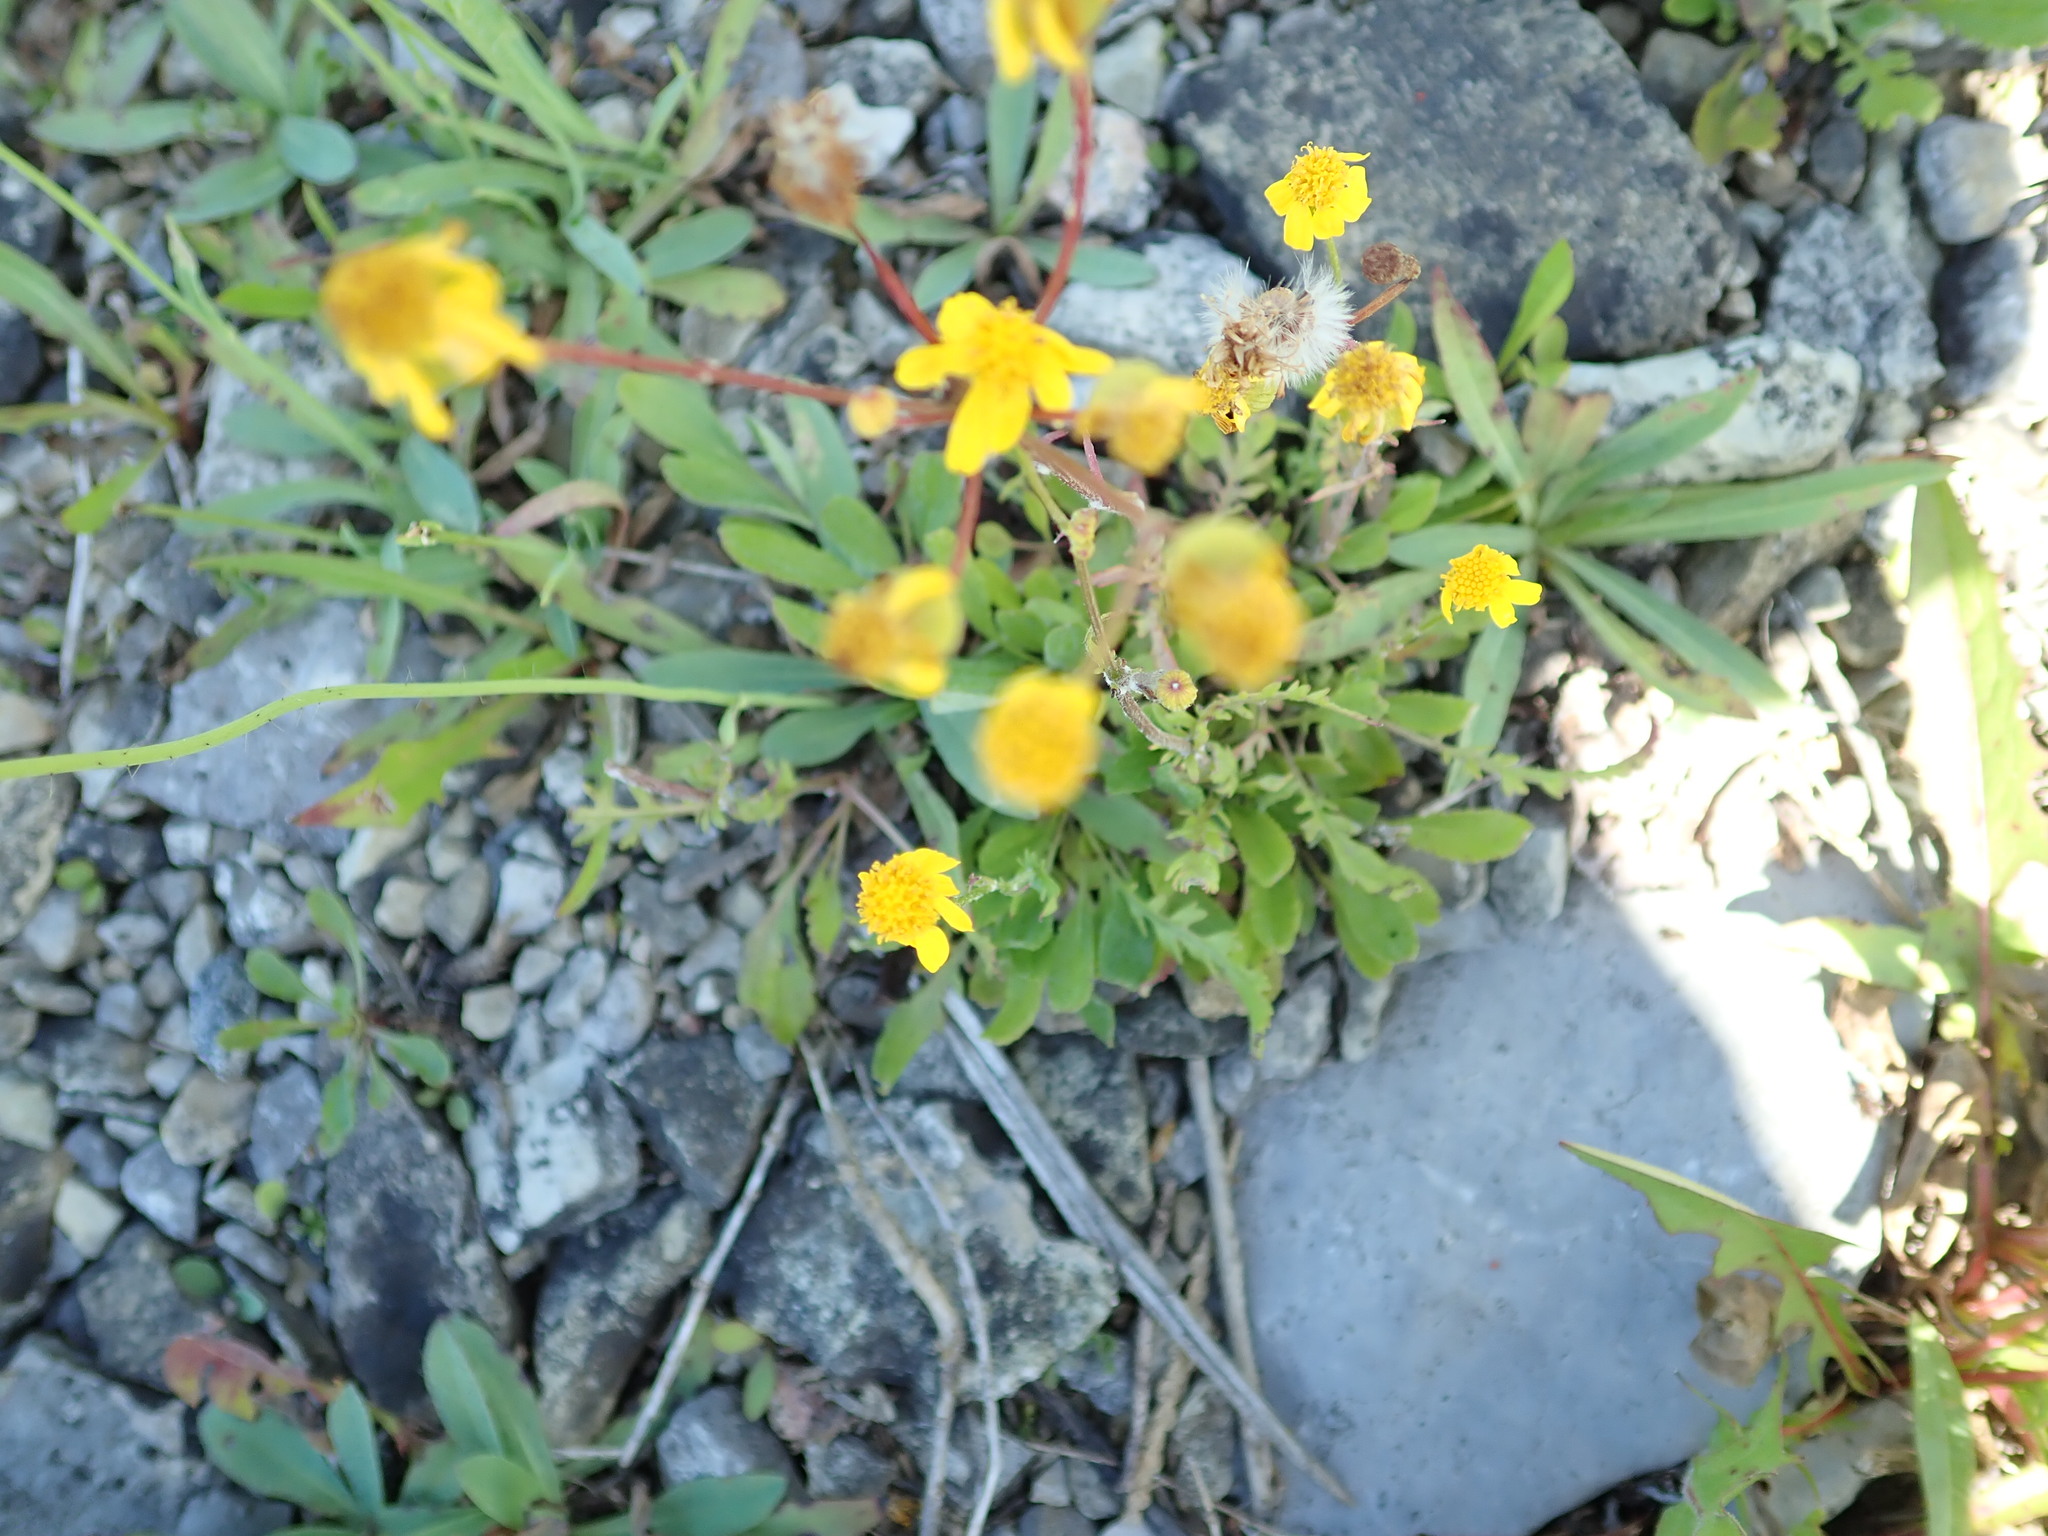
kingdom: Plantae
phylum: Tracheophyta
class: Magnoliopsida
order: Asterales
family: Asteraceae
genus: Packera
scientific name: Packera paupercula
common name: Balsam groundsel
